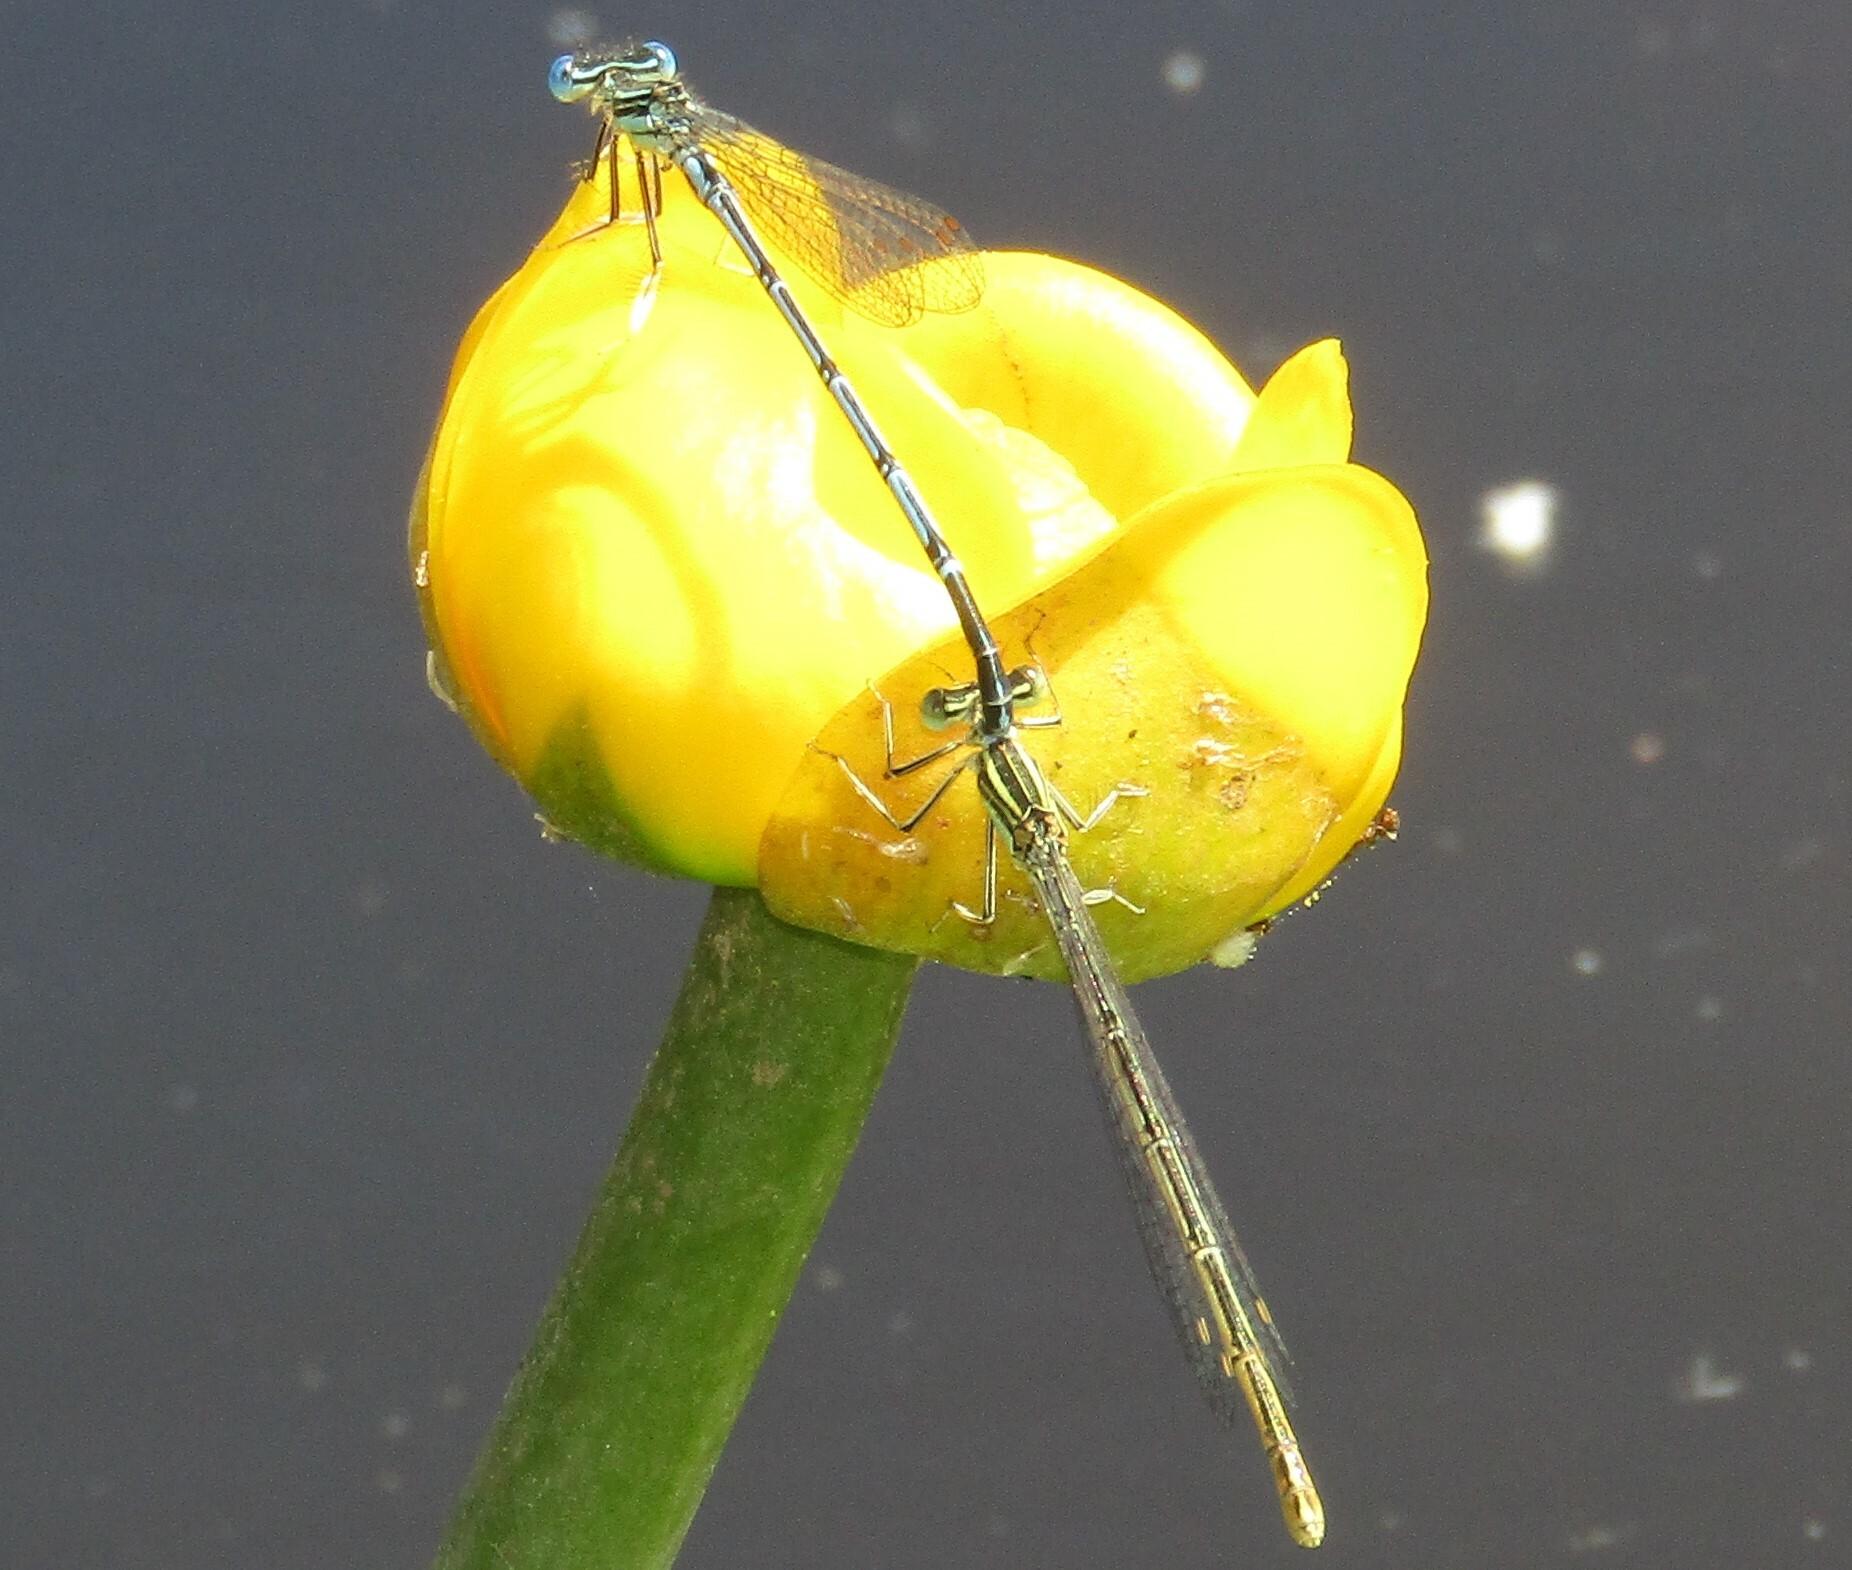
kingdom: Animalia
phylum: Arthropoda
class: Insecta
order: Odonata
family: Platycnemididae
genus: Platycnemis
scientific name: Platycnemis pennipes
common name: White-legged damselfly
